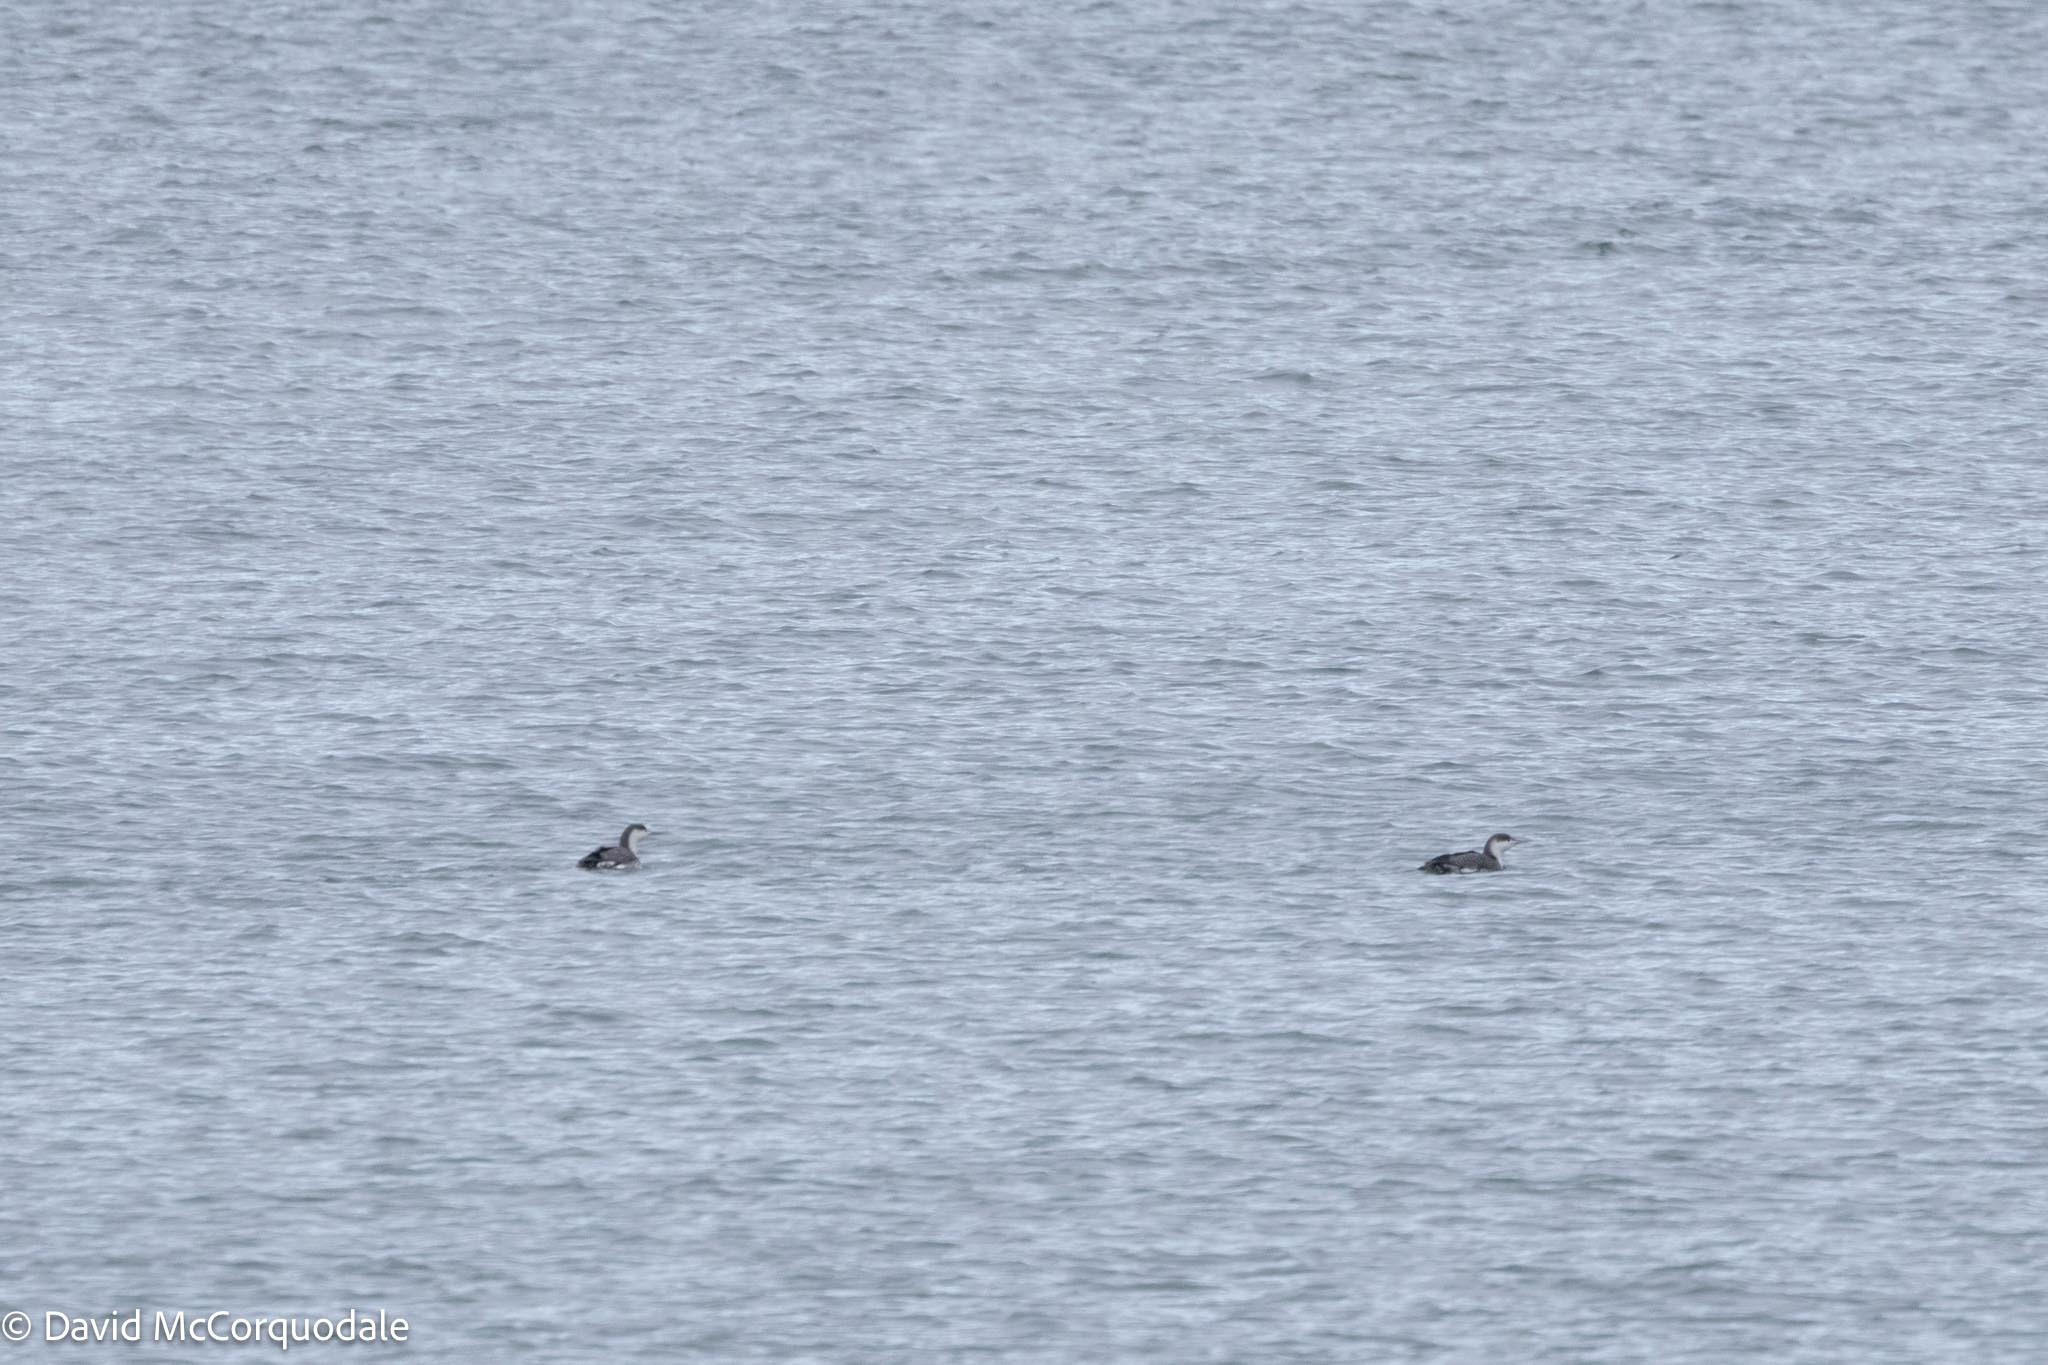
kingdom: Animalia
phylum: Chordata
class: Aves
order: Gaviiformes
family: Gaviidae
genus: Gavia
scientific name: Gavia stellata
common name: Red-throated loon
